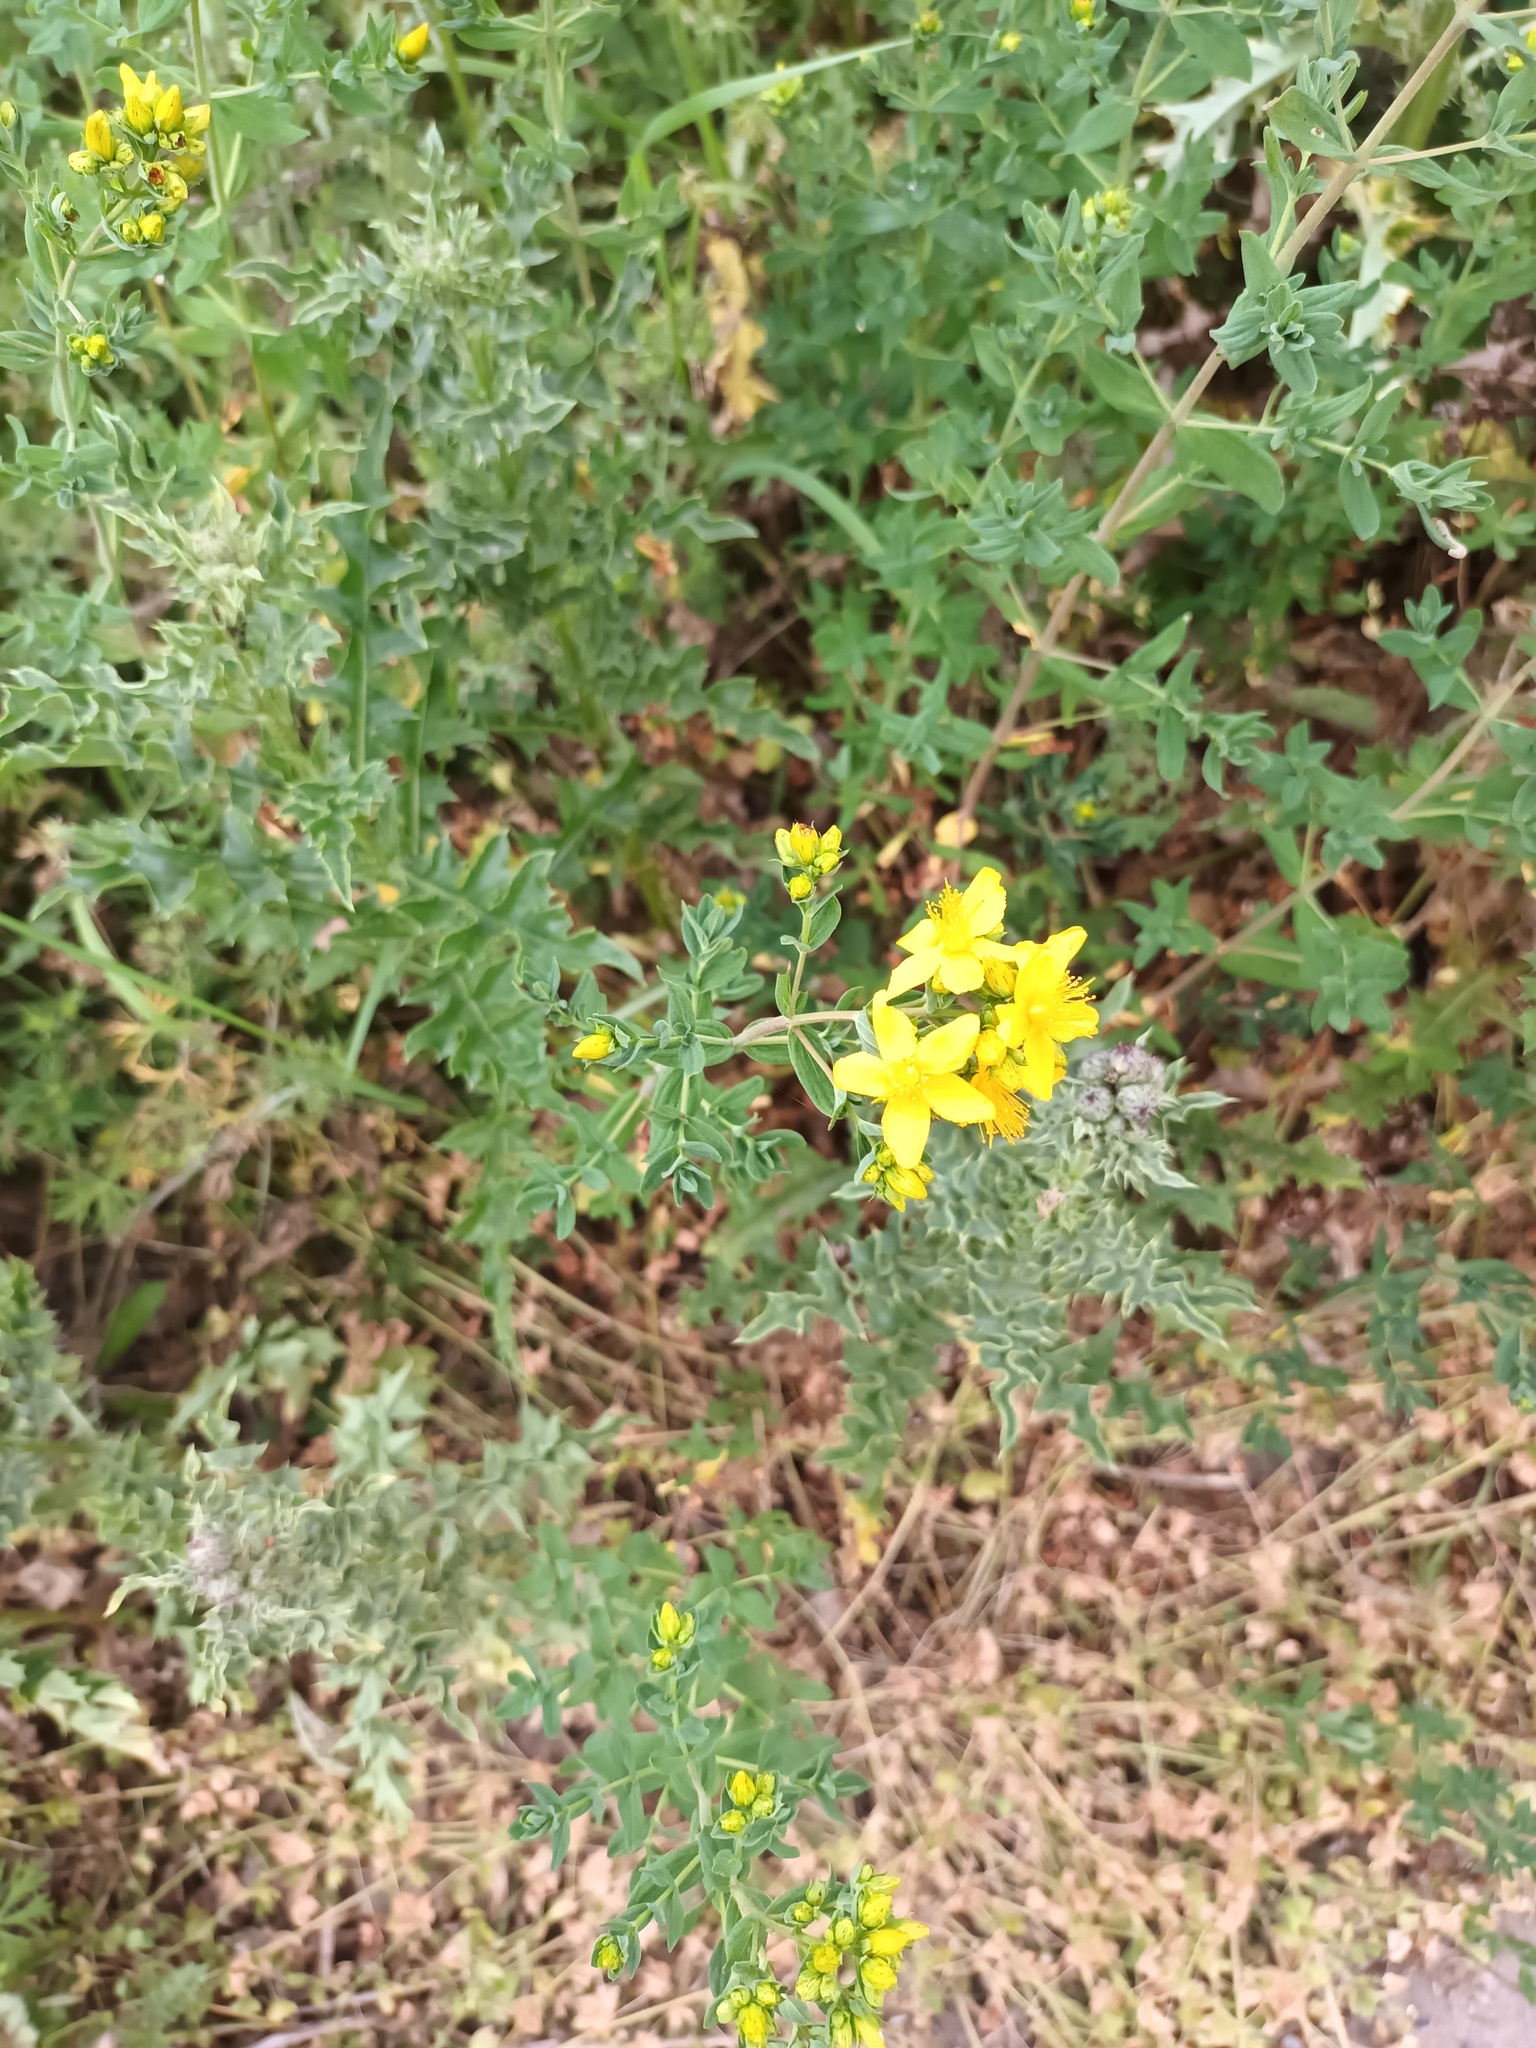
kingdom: Plantae
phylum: Tracheophyta
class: Magnoliopsida
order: Malpighiales
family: Hypericaceae
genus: Hypericum
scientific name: Hypericum perforatum
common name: Common st. johnswort
